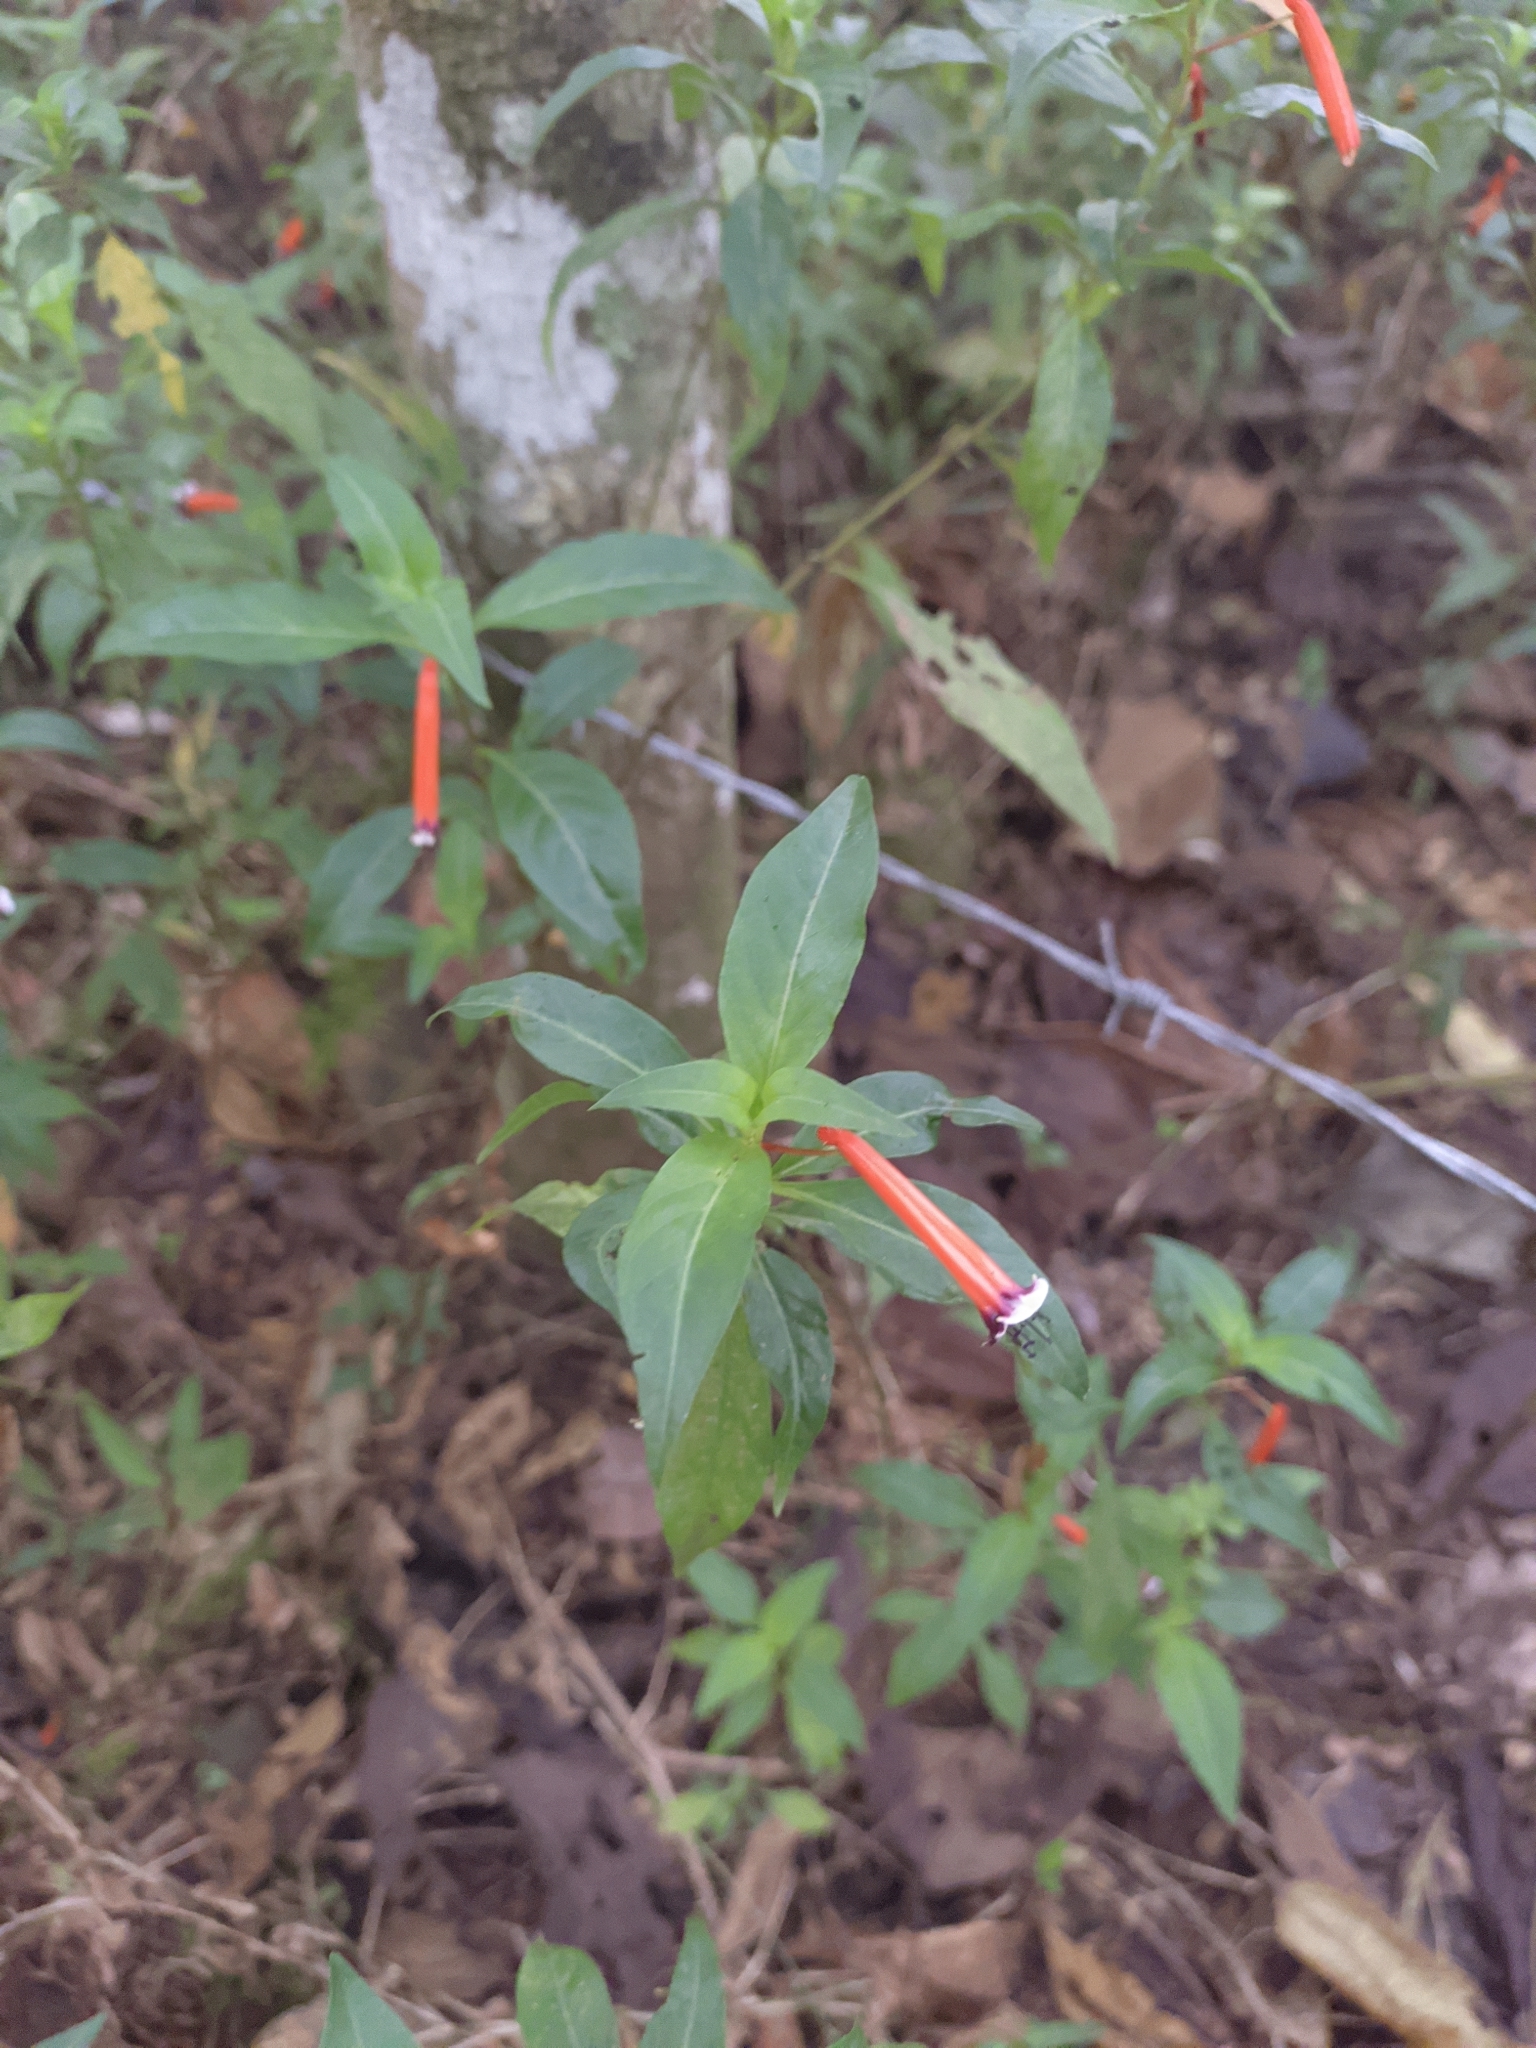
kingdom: Plantae
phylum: Tracheophyta
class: Magnoliopsida
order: Myrtales
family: Lythraceae
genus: Cuphea
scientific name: Cuphea ignea
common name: Cigar flower
